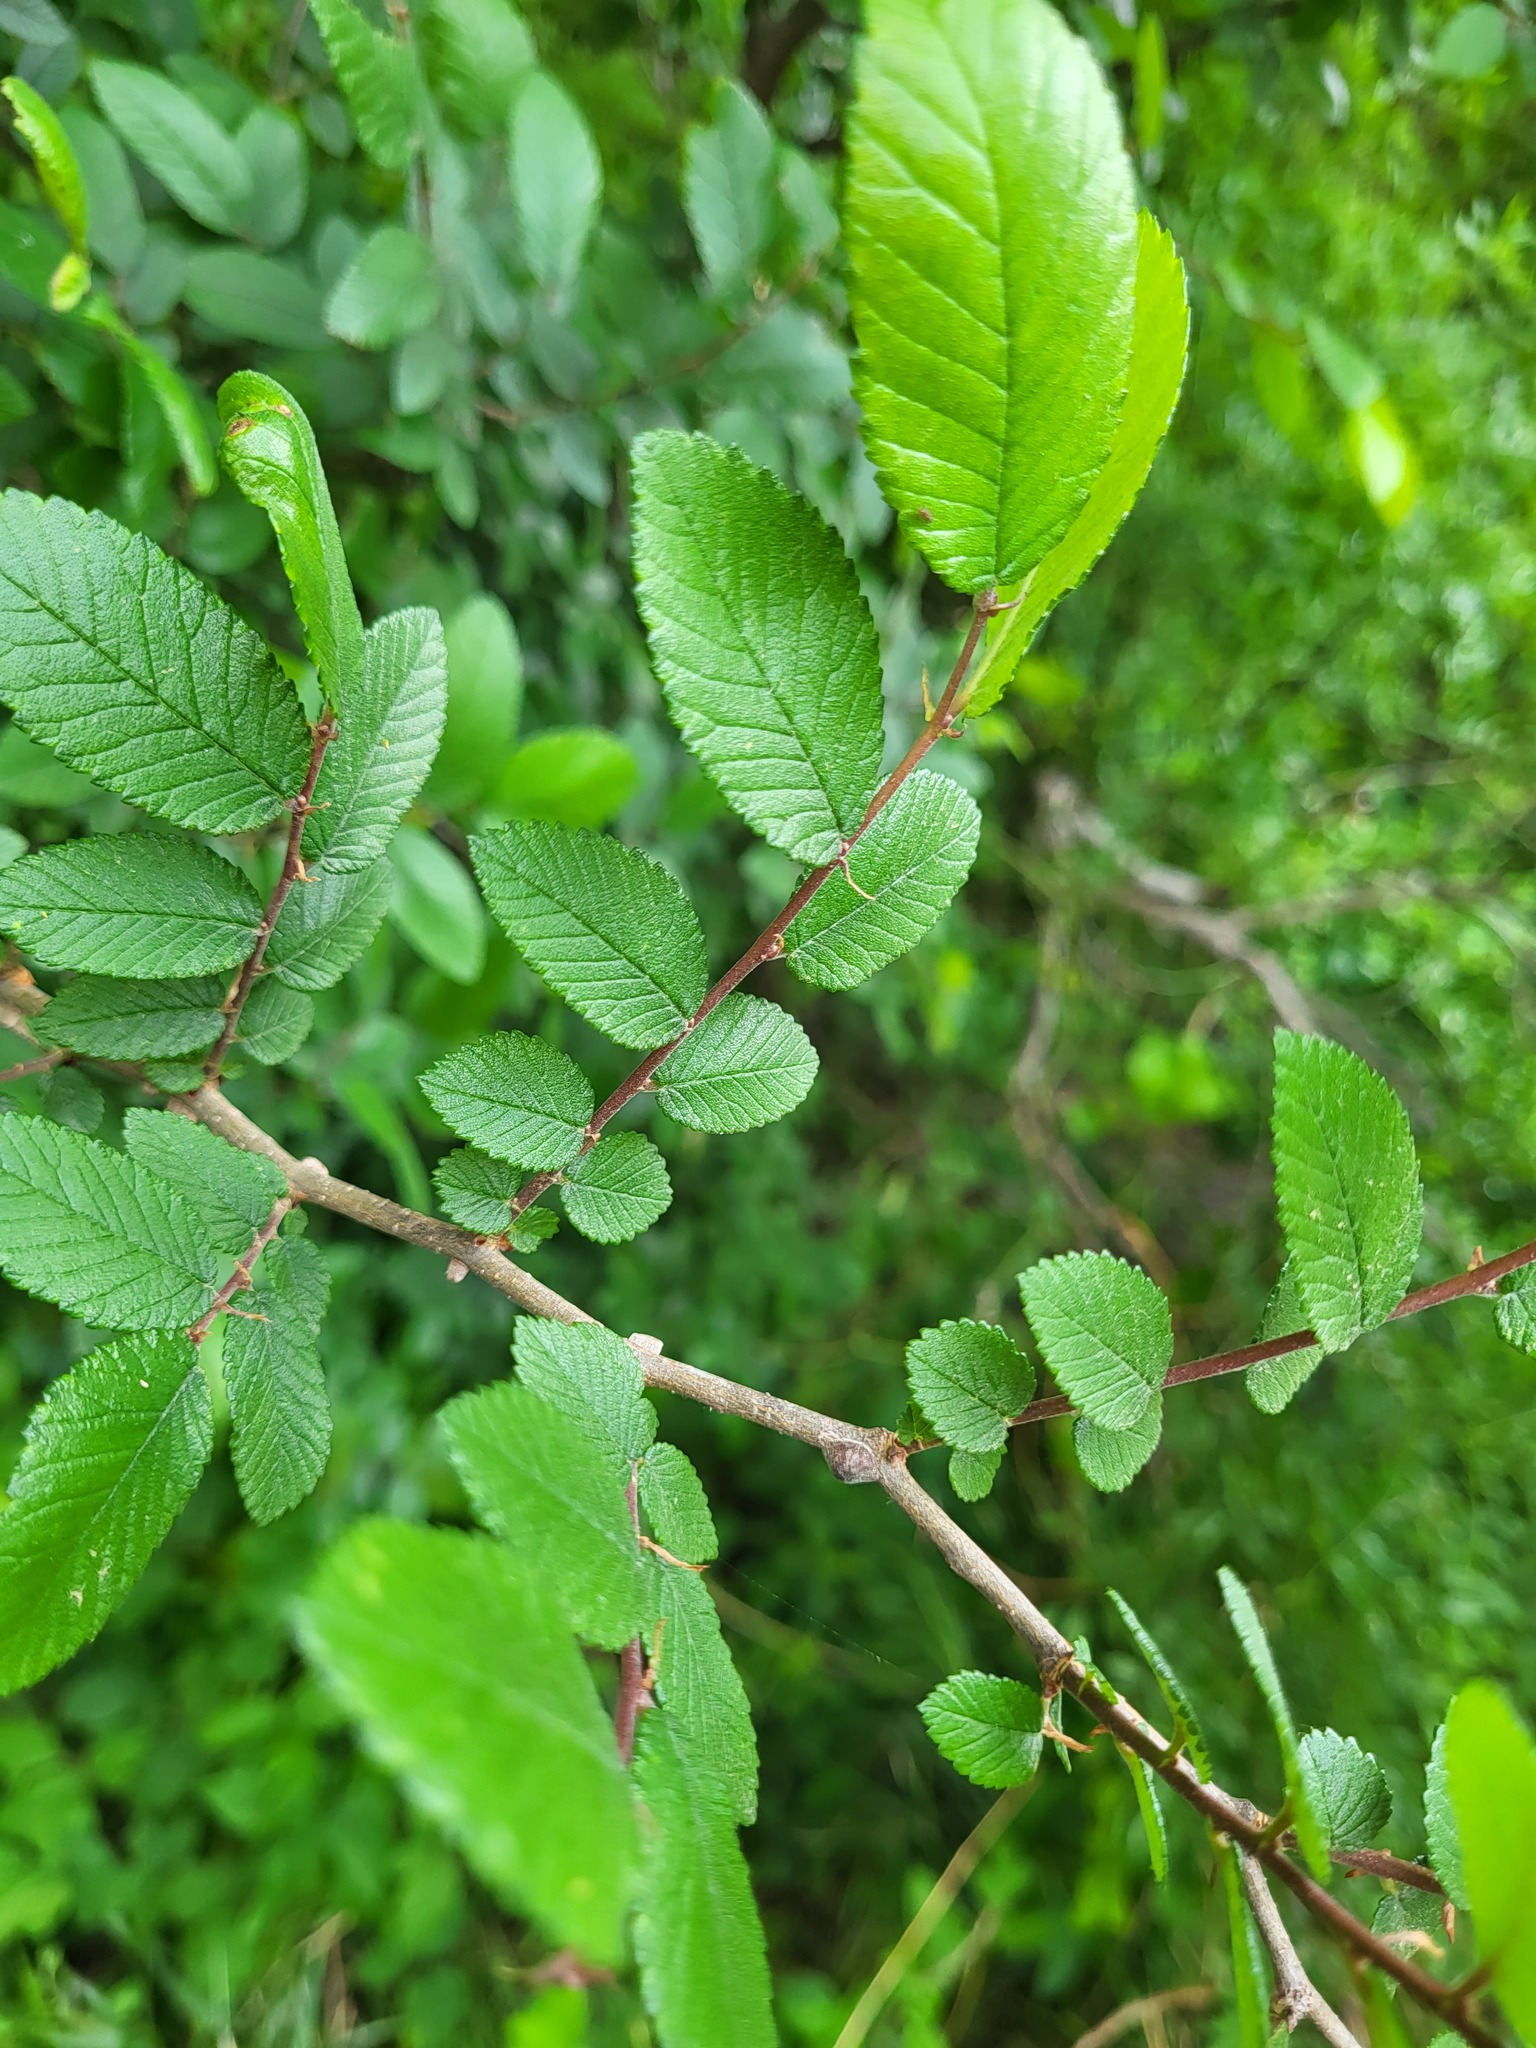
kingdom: Plantae
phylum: Tracheophyta
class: Magnoliopsida
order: Rosales
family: Ulmaceae
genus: Ulmus
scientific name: Ulmus crassifolia
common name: Basket elm
